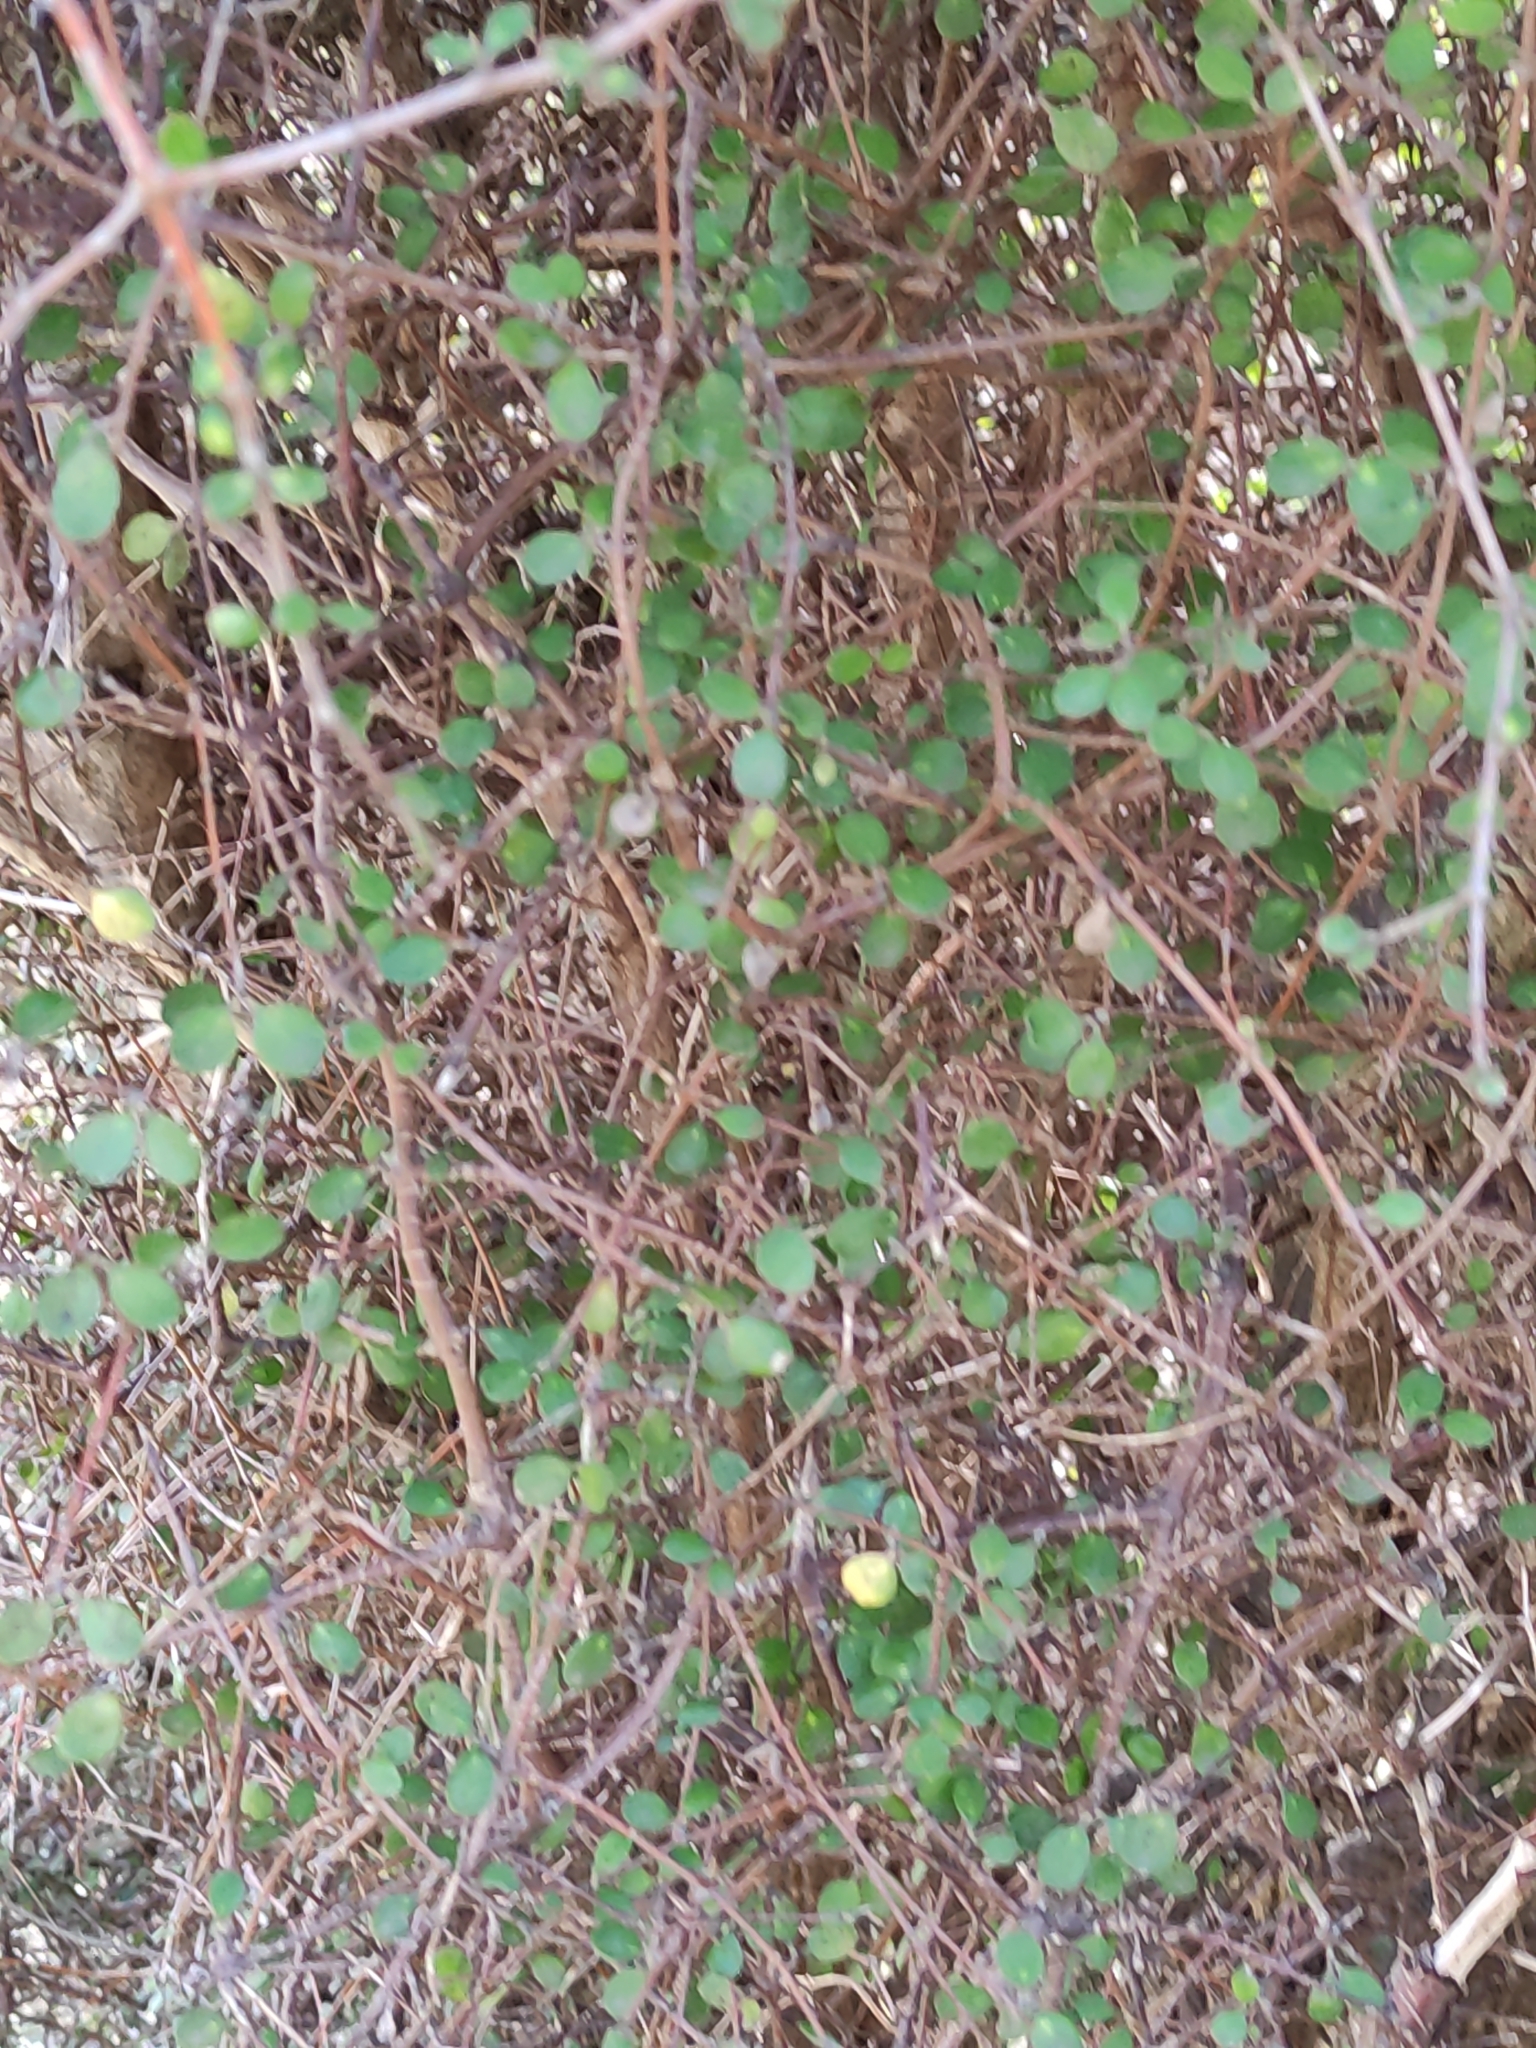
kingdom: Plantae
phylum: Tracheophyta
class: Magnoliopsida
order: Gentianales
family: Rubiaceae
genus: Coprosma
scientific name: Coprosma crassifolia
